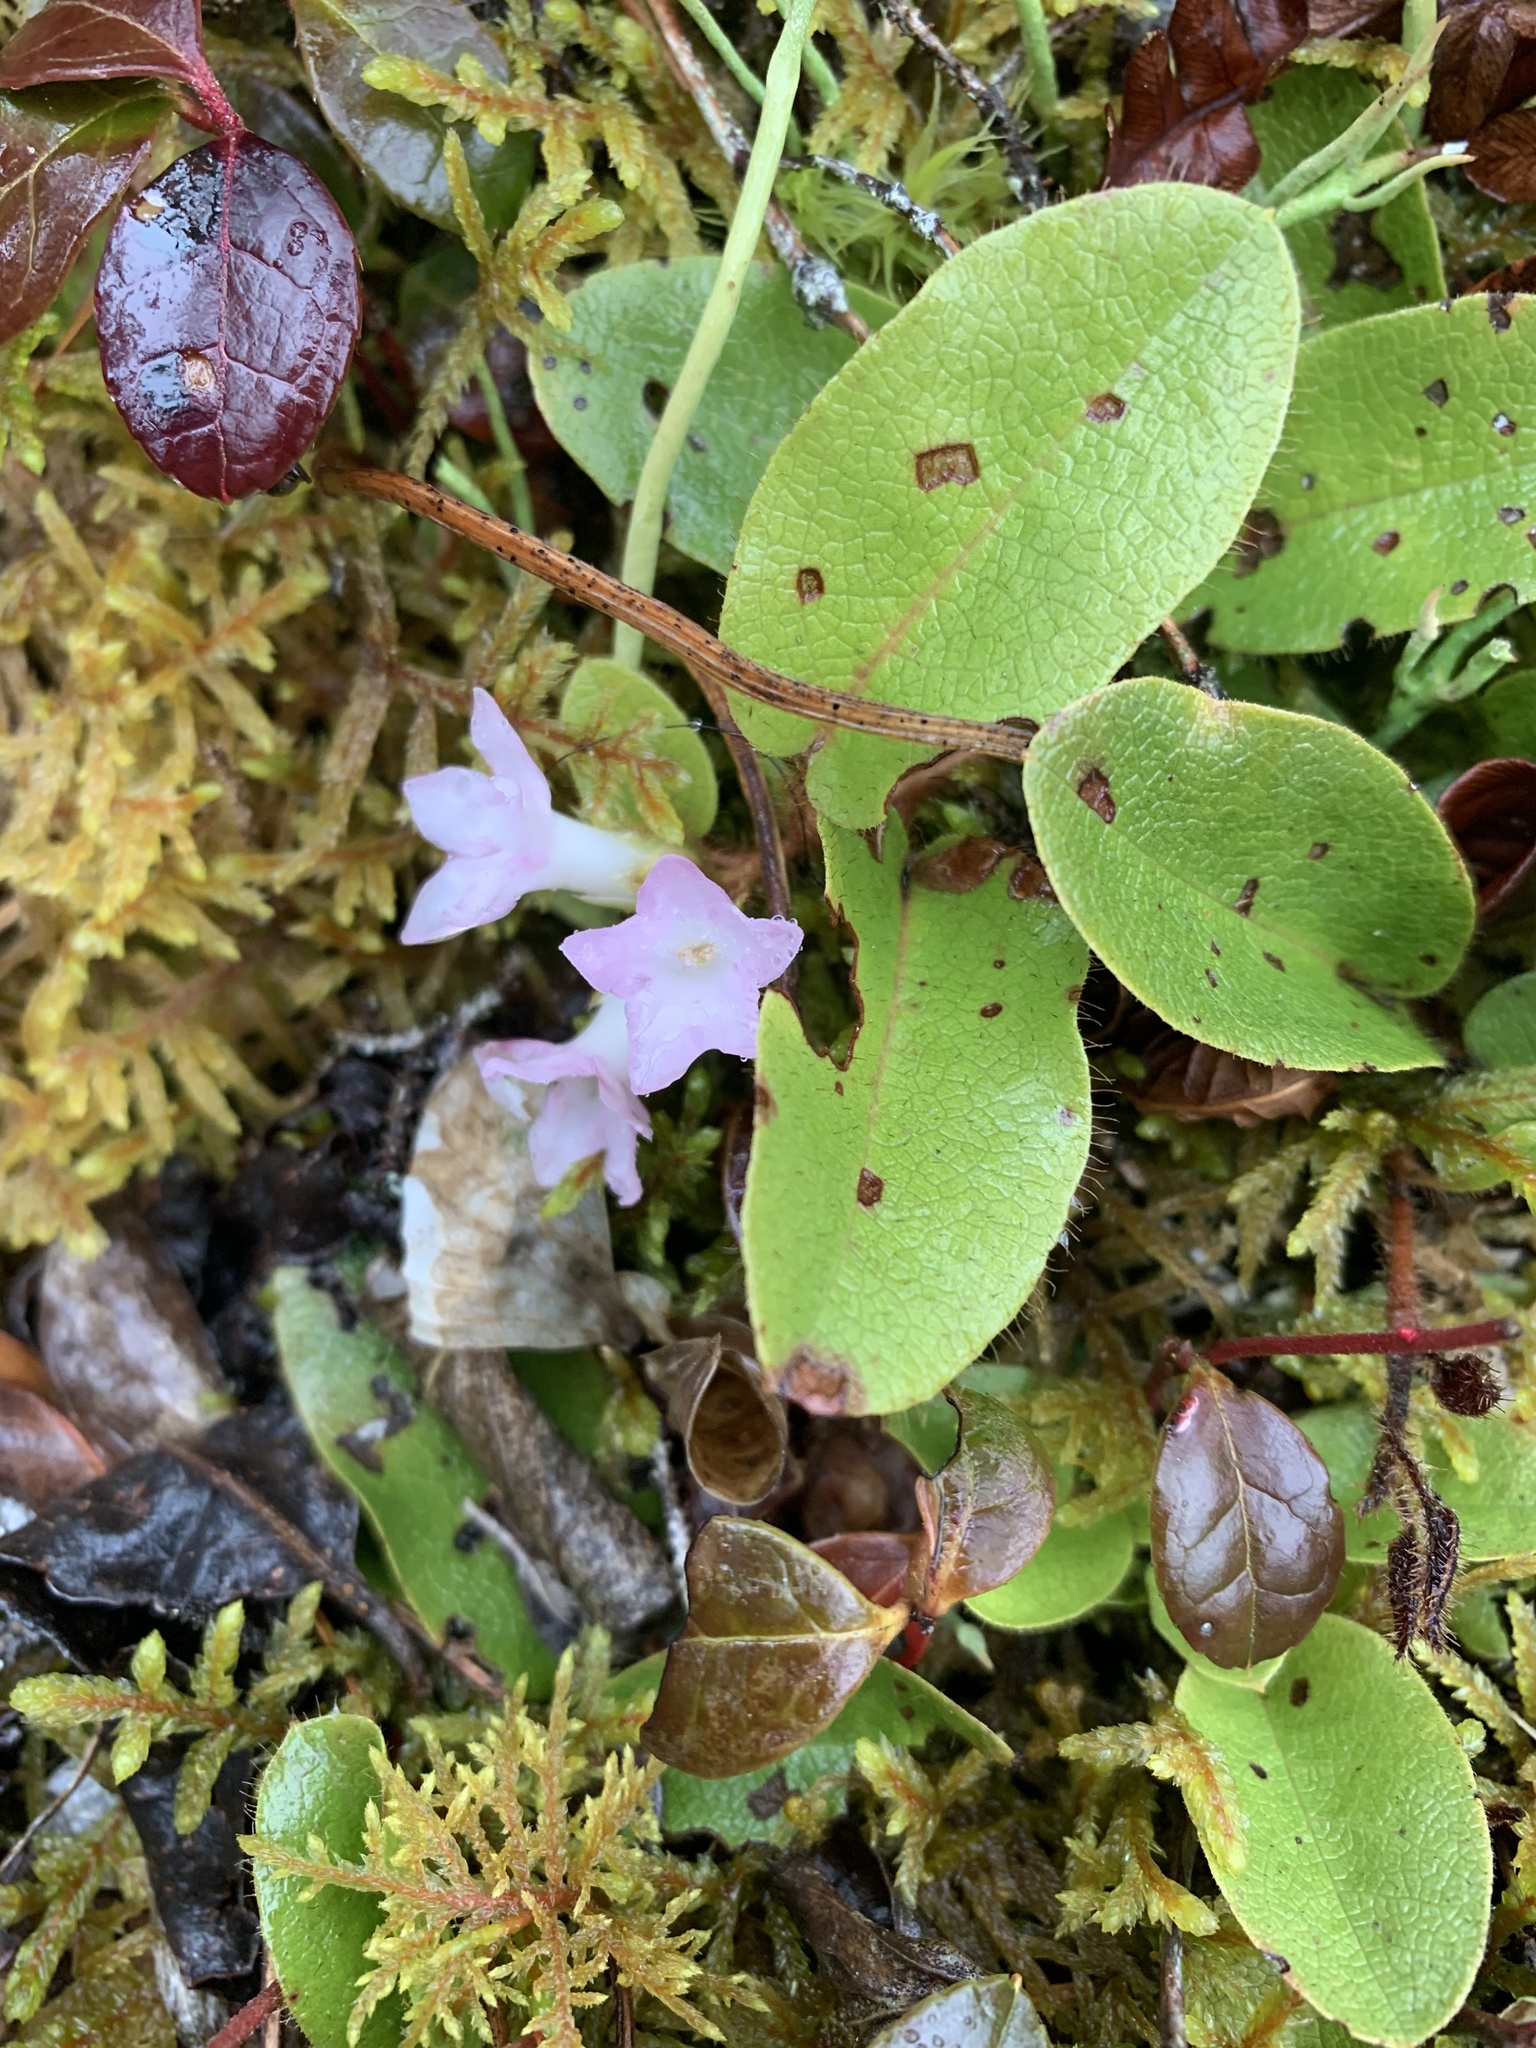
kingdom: Plantae
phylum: Tracheophyta
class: Magnoliopsida
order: Ericales
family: Ericaceae
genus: Epigaea
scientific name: Epigaea repens
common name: Gravelroot
